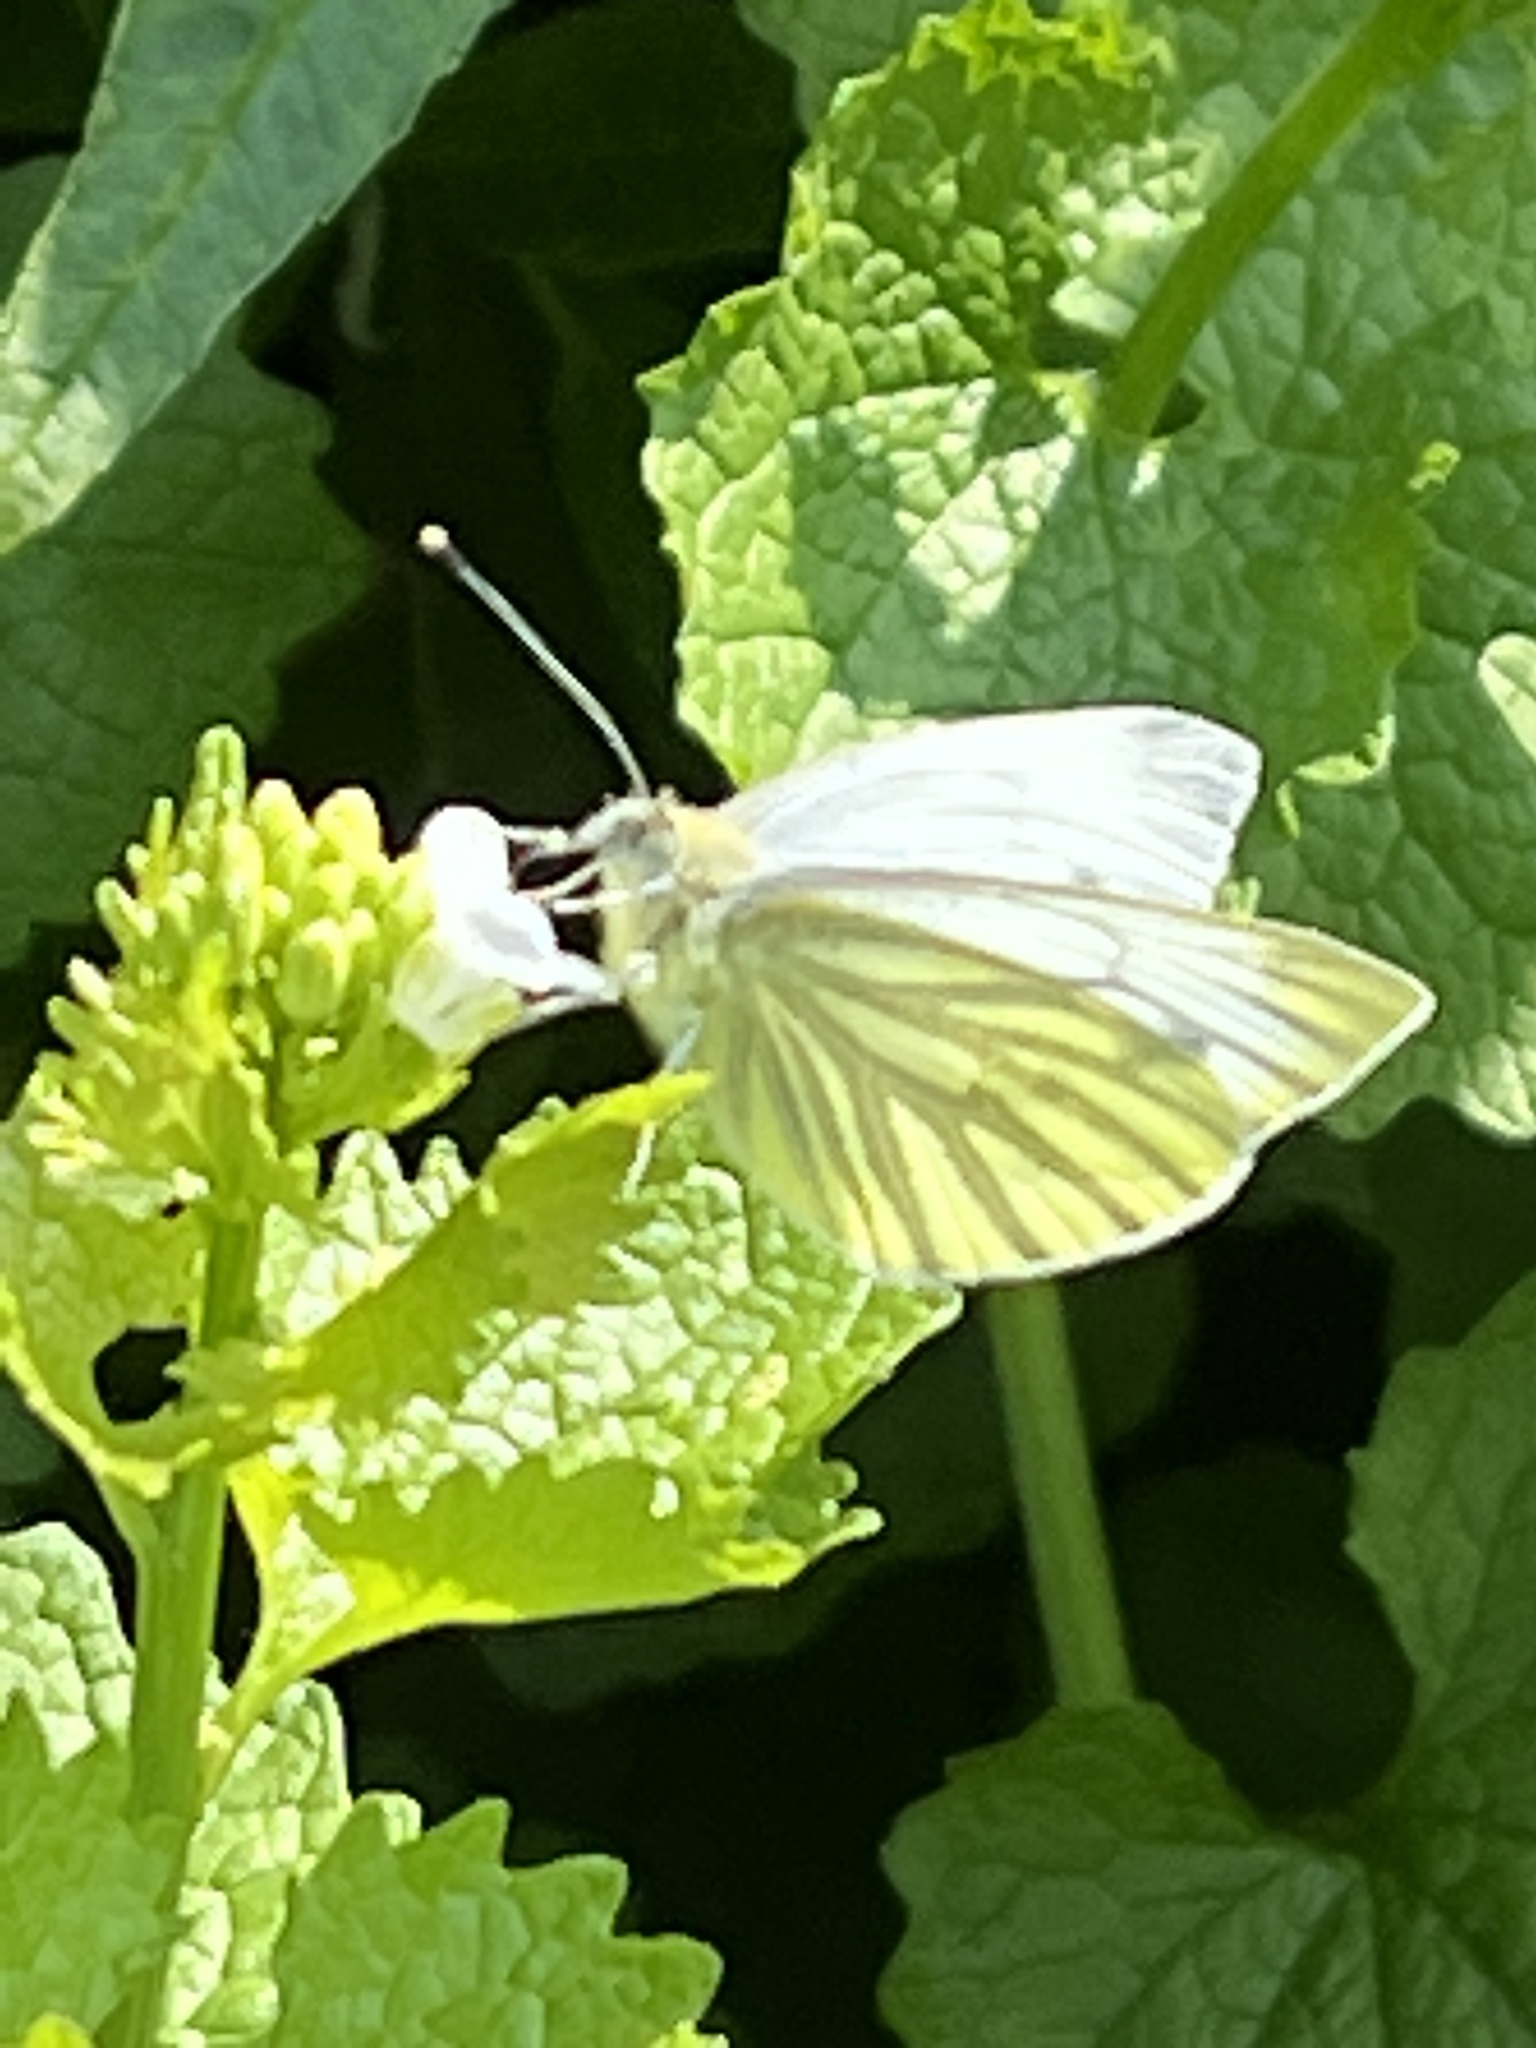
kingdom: Animalia
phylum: Arthropoda
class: Insecta
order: Lepidoptera
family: Pieridae
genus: Pieris
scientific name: Pieris napi
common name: Green-veined white
